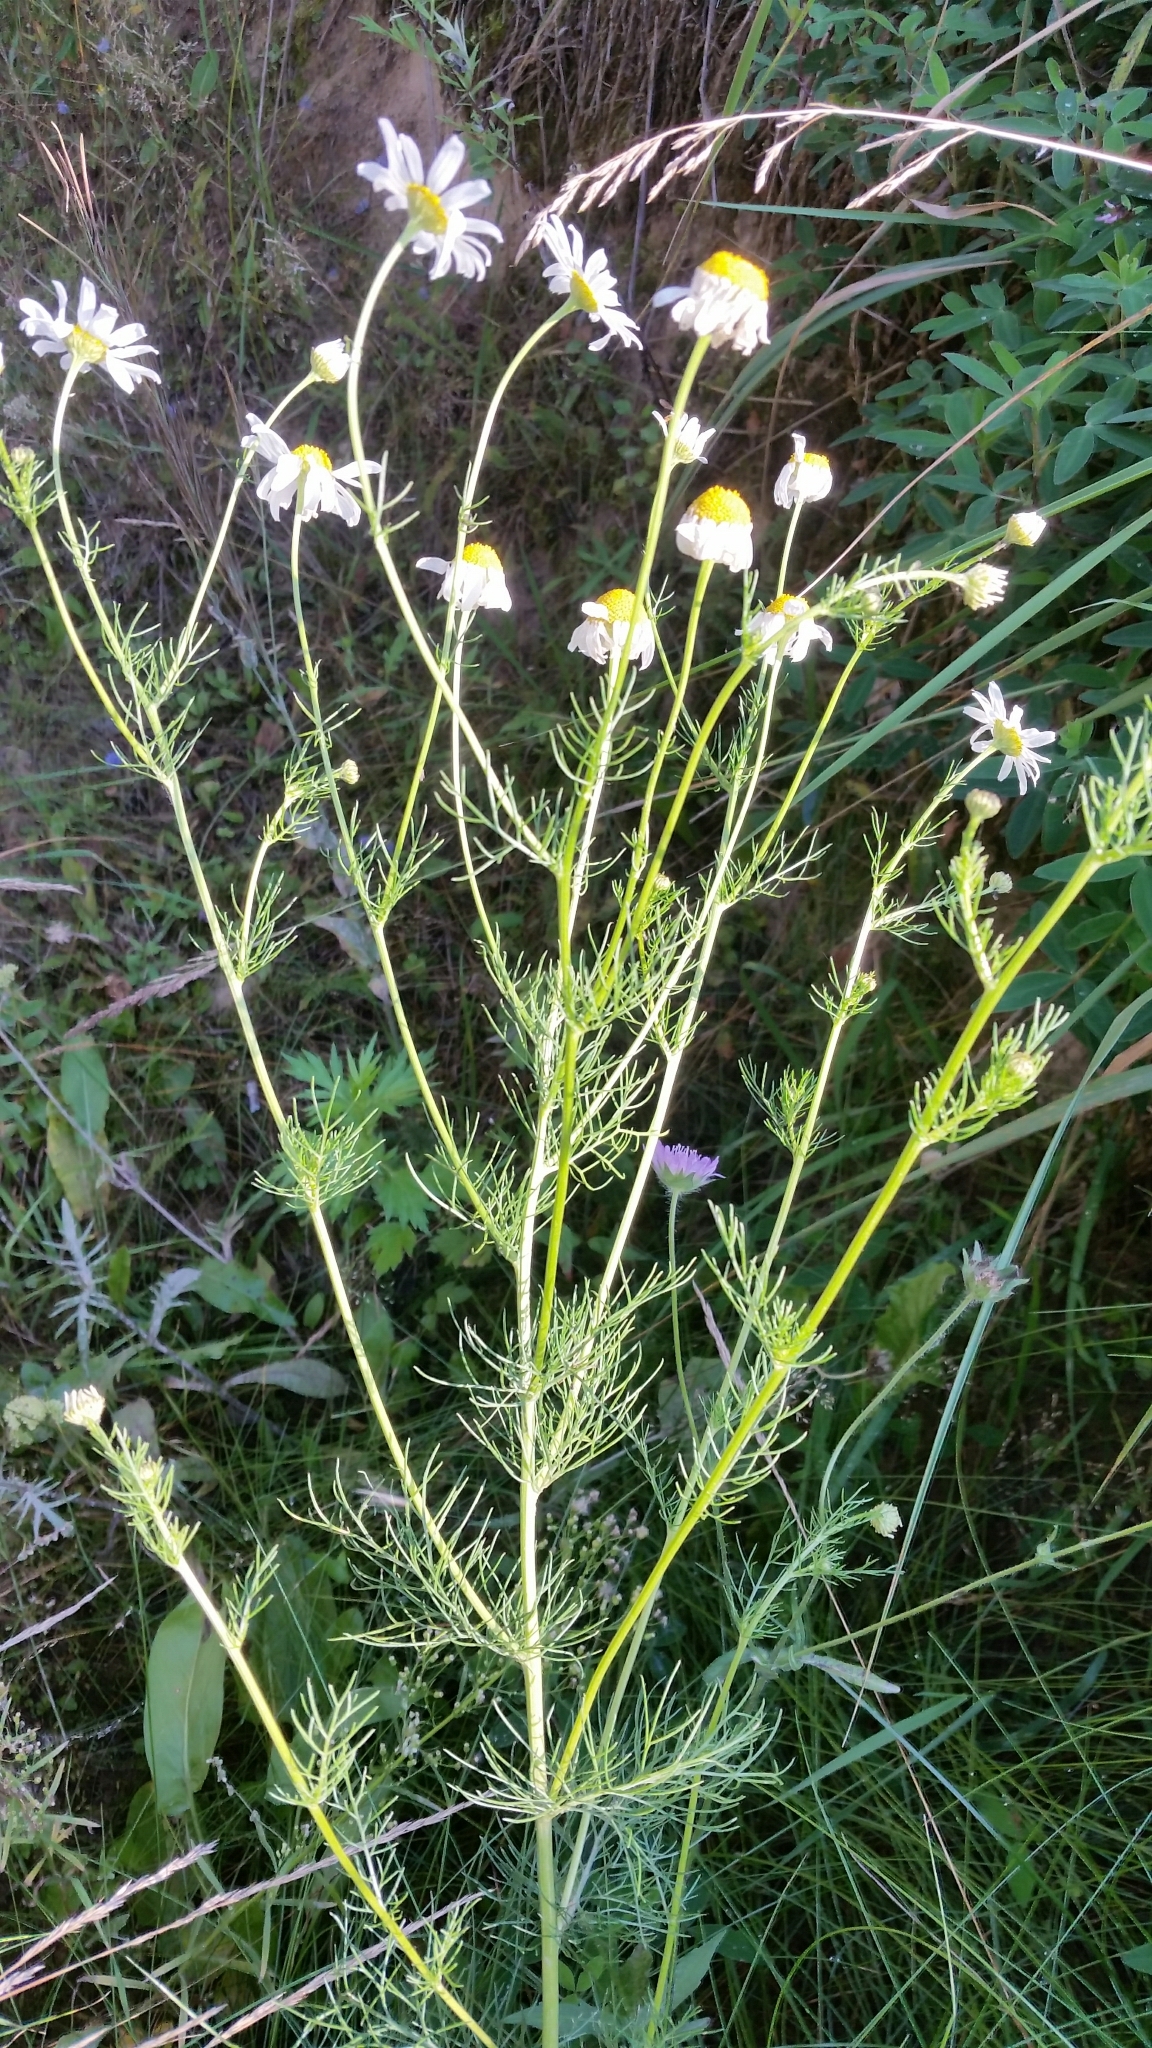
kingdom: Plantae
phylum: Tracheophyta
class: Magnoliopsida
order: Asterales
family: Asteraceae
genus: Tripleurospermum
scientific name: Tripleurospermum inodorum
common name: Scentless mayweed
